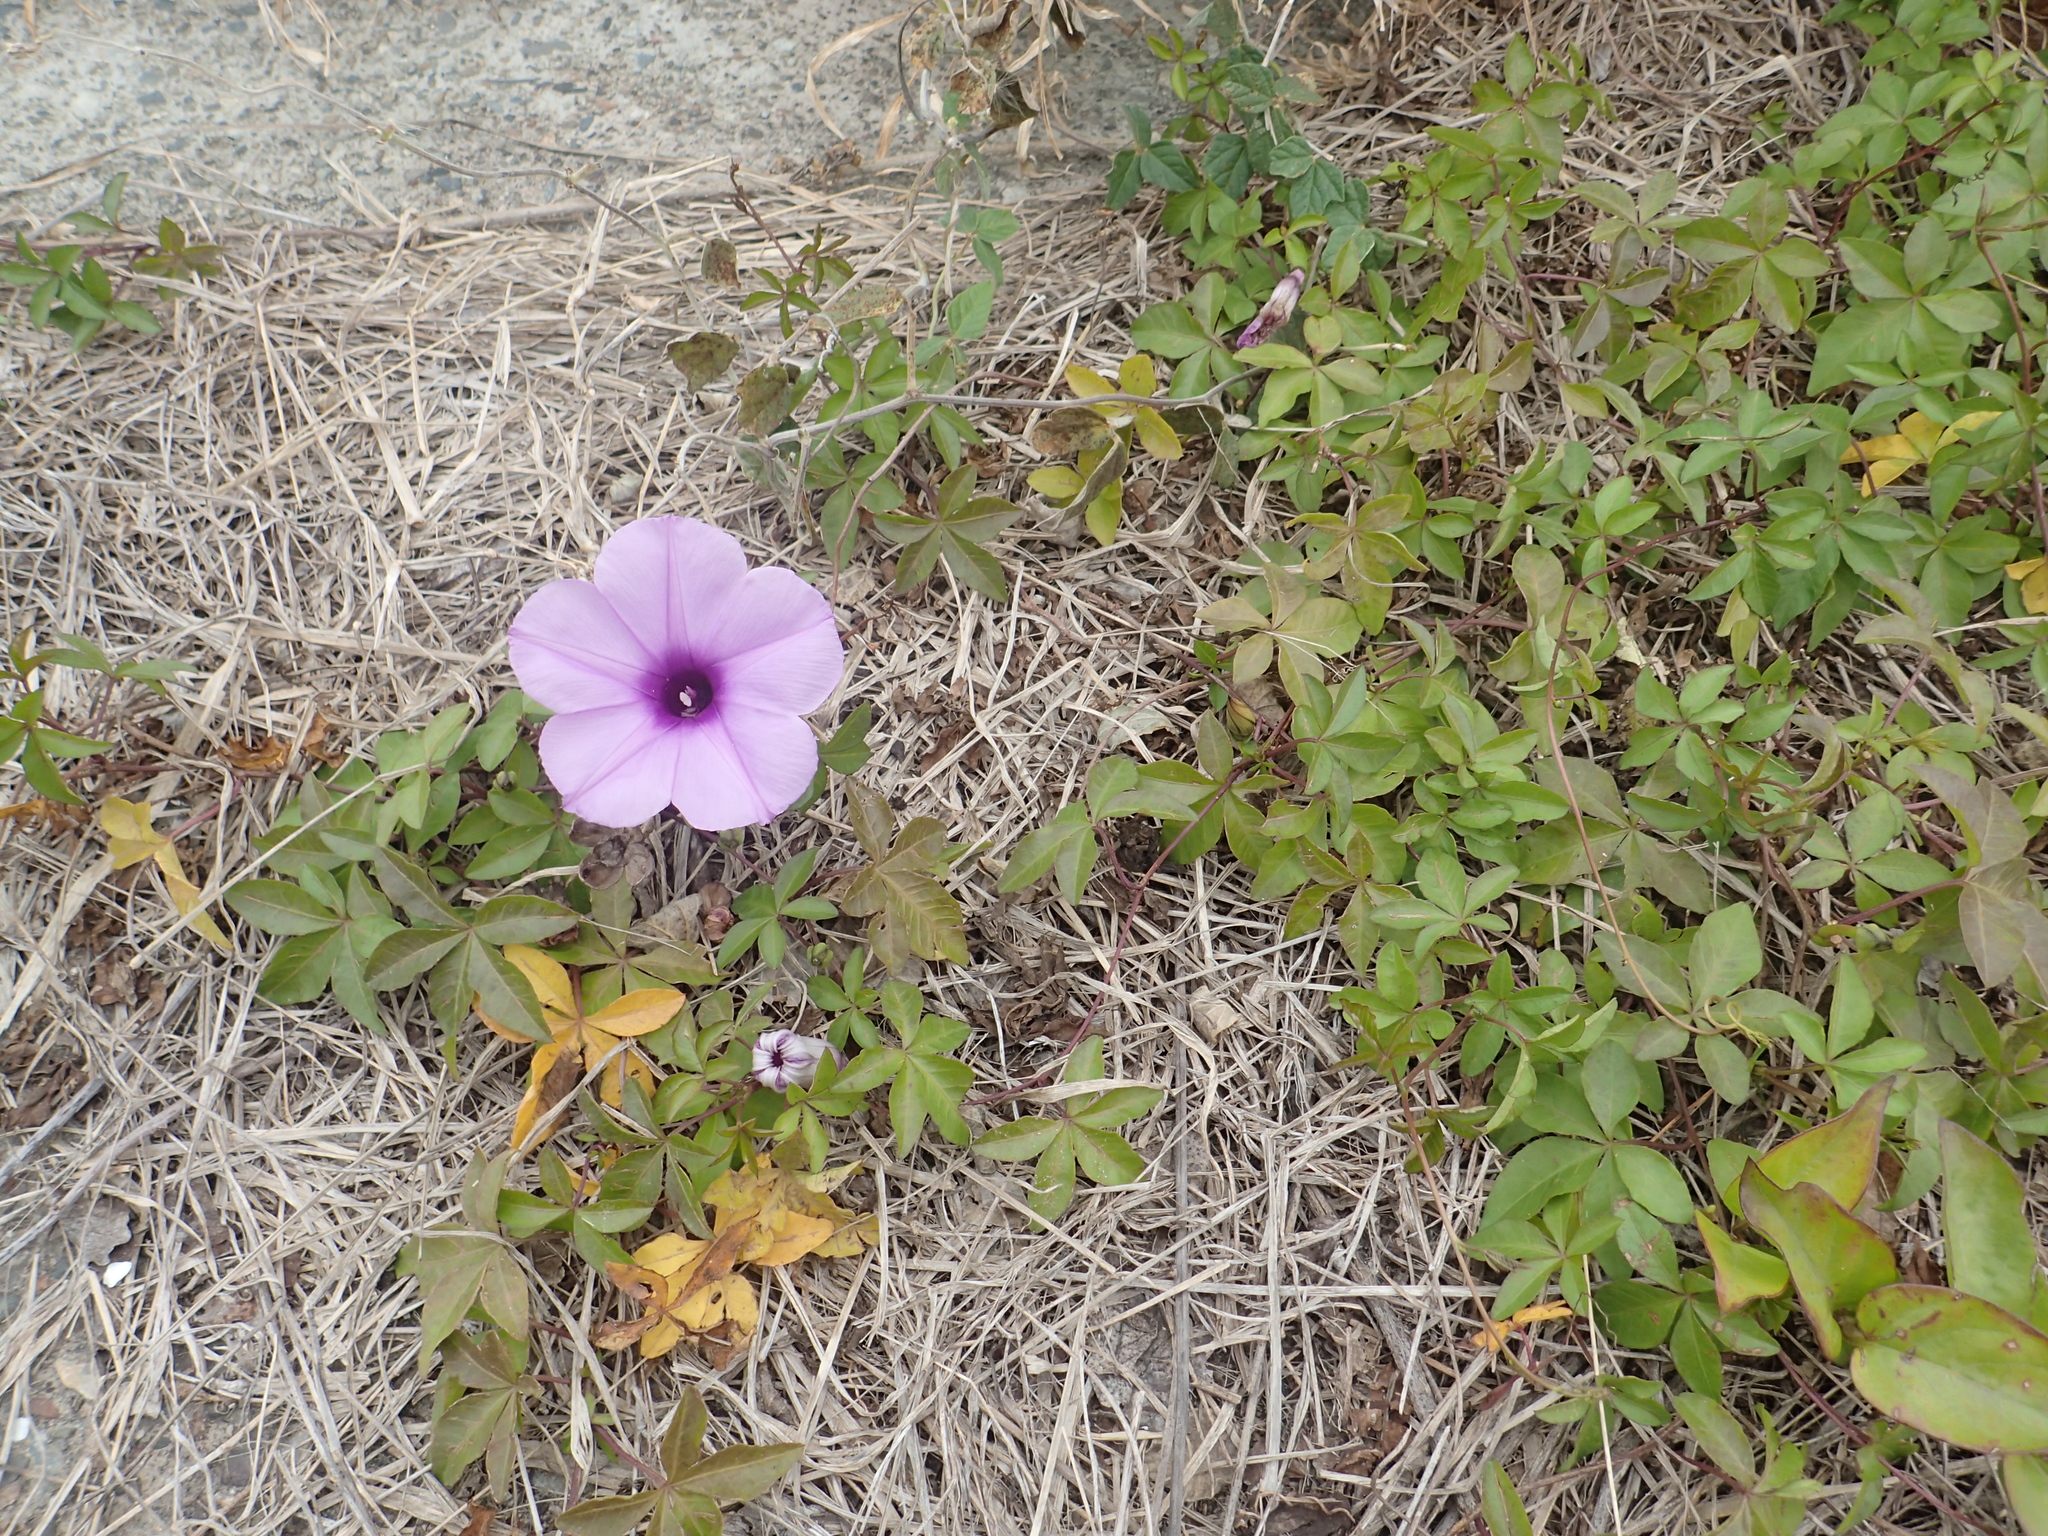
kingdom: Plantae
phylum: Tracheophyta
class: Magnoliopsida
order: Solanales
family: Convolvulaceae
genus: Ipomoea
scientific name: Ipomoea cairica
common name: Mile a minute vine
